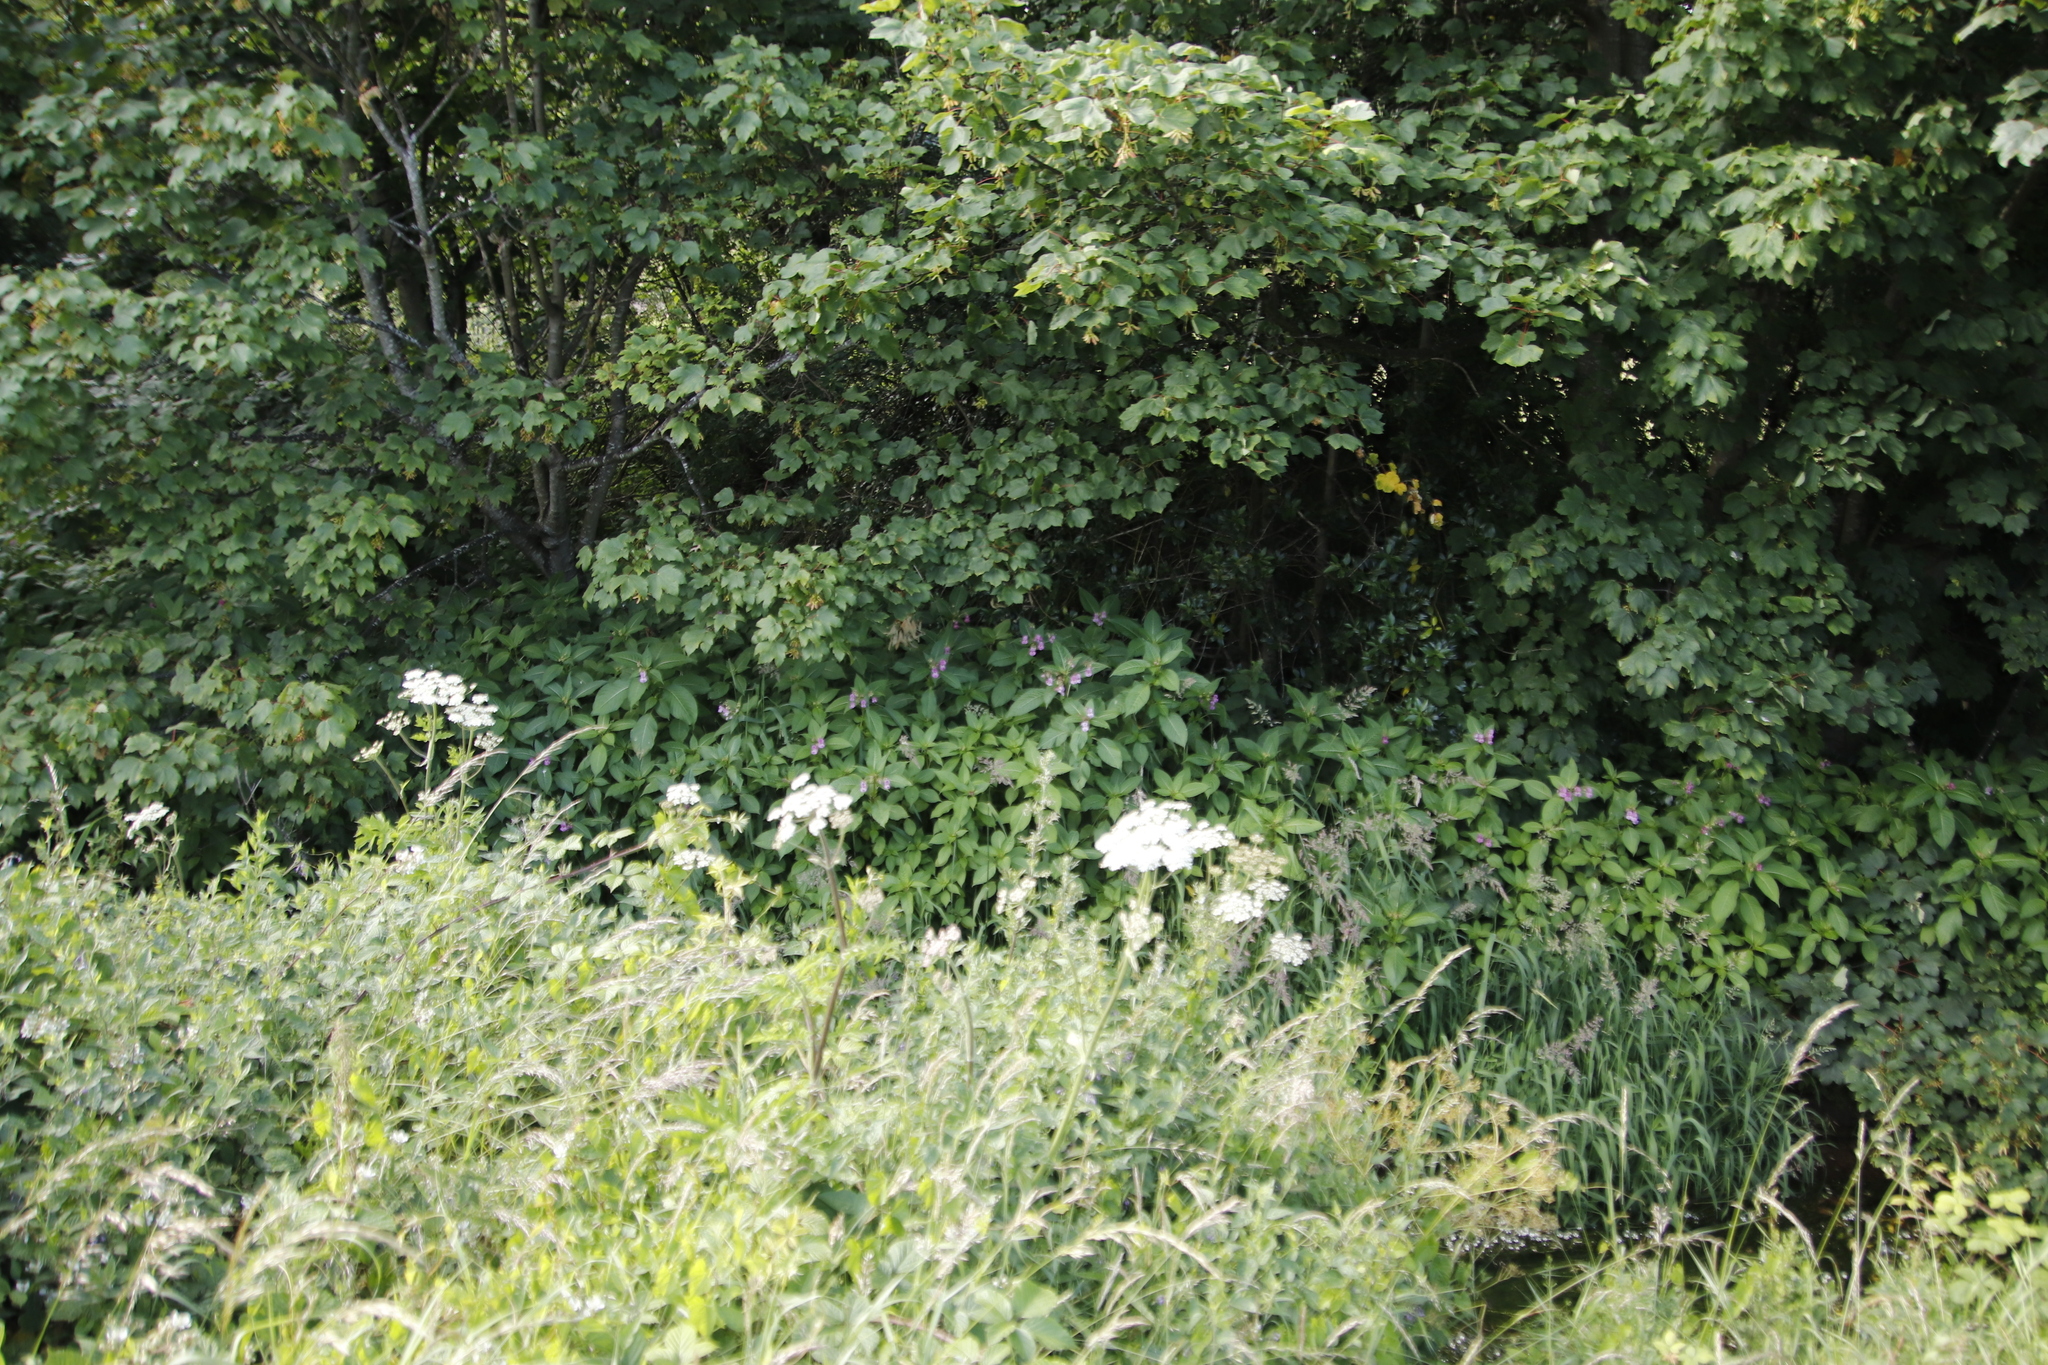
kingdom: Plantae
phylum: Tracheophyta
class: Magnoliopsida
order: Ericales
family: Balsaminaceae
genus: Impatiens
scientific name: Impatiens glandulifera
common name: Himalayan balsam
